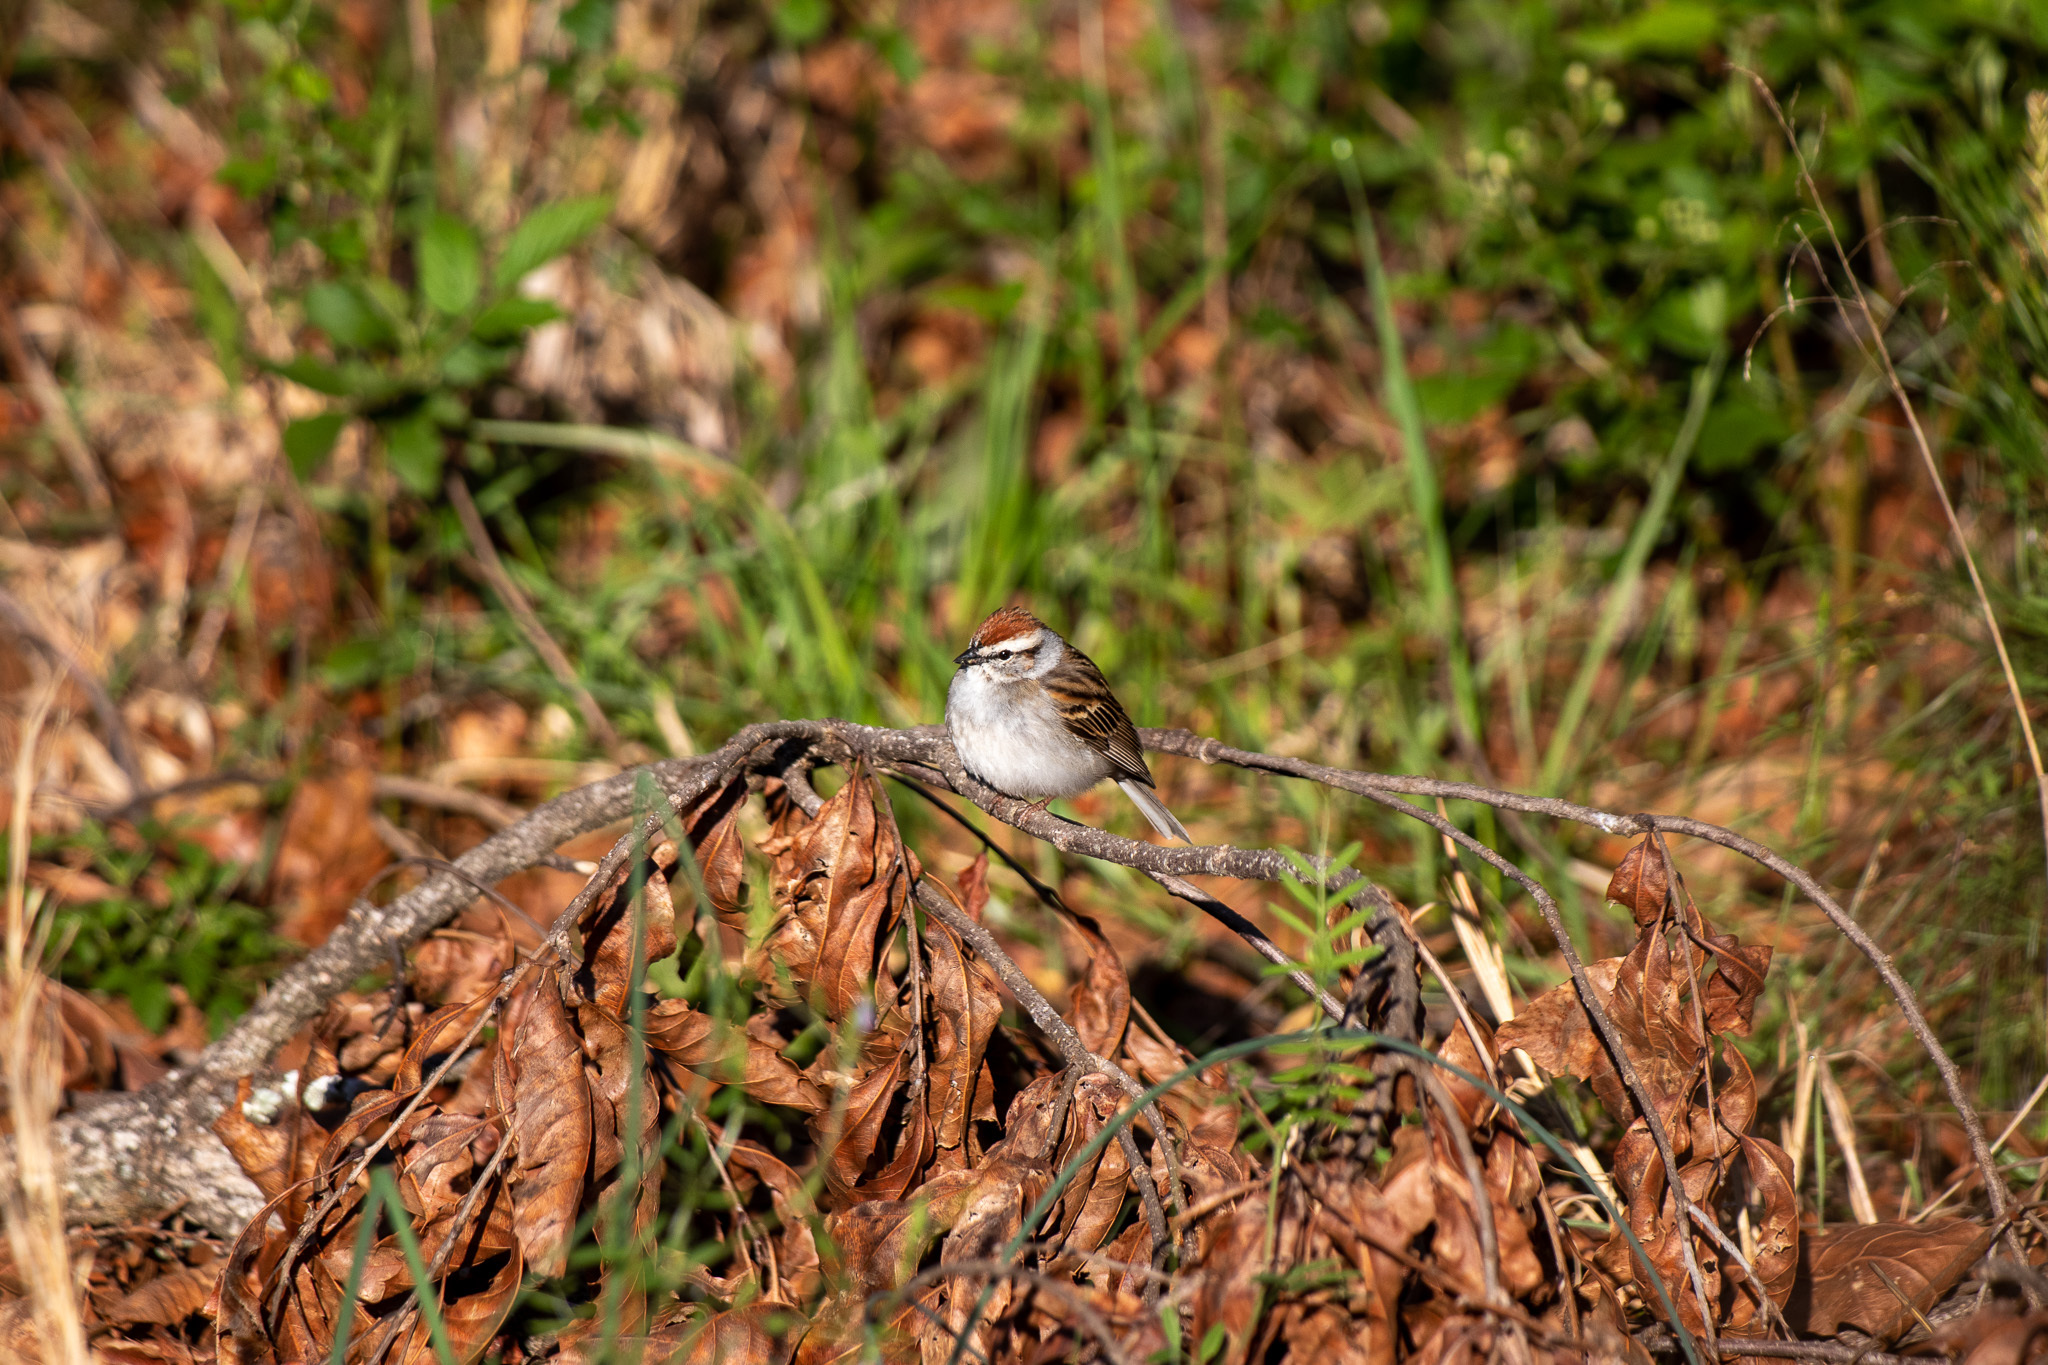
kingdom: Animalia
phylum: Chordata
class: Aves
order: Passeriformes
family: Passerellidae
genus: Spizella
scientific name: Spizella passerina
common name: Chipping sparrow
